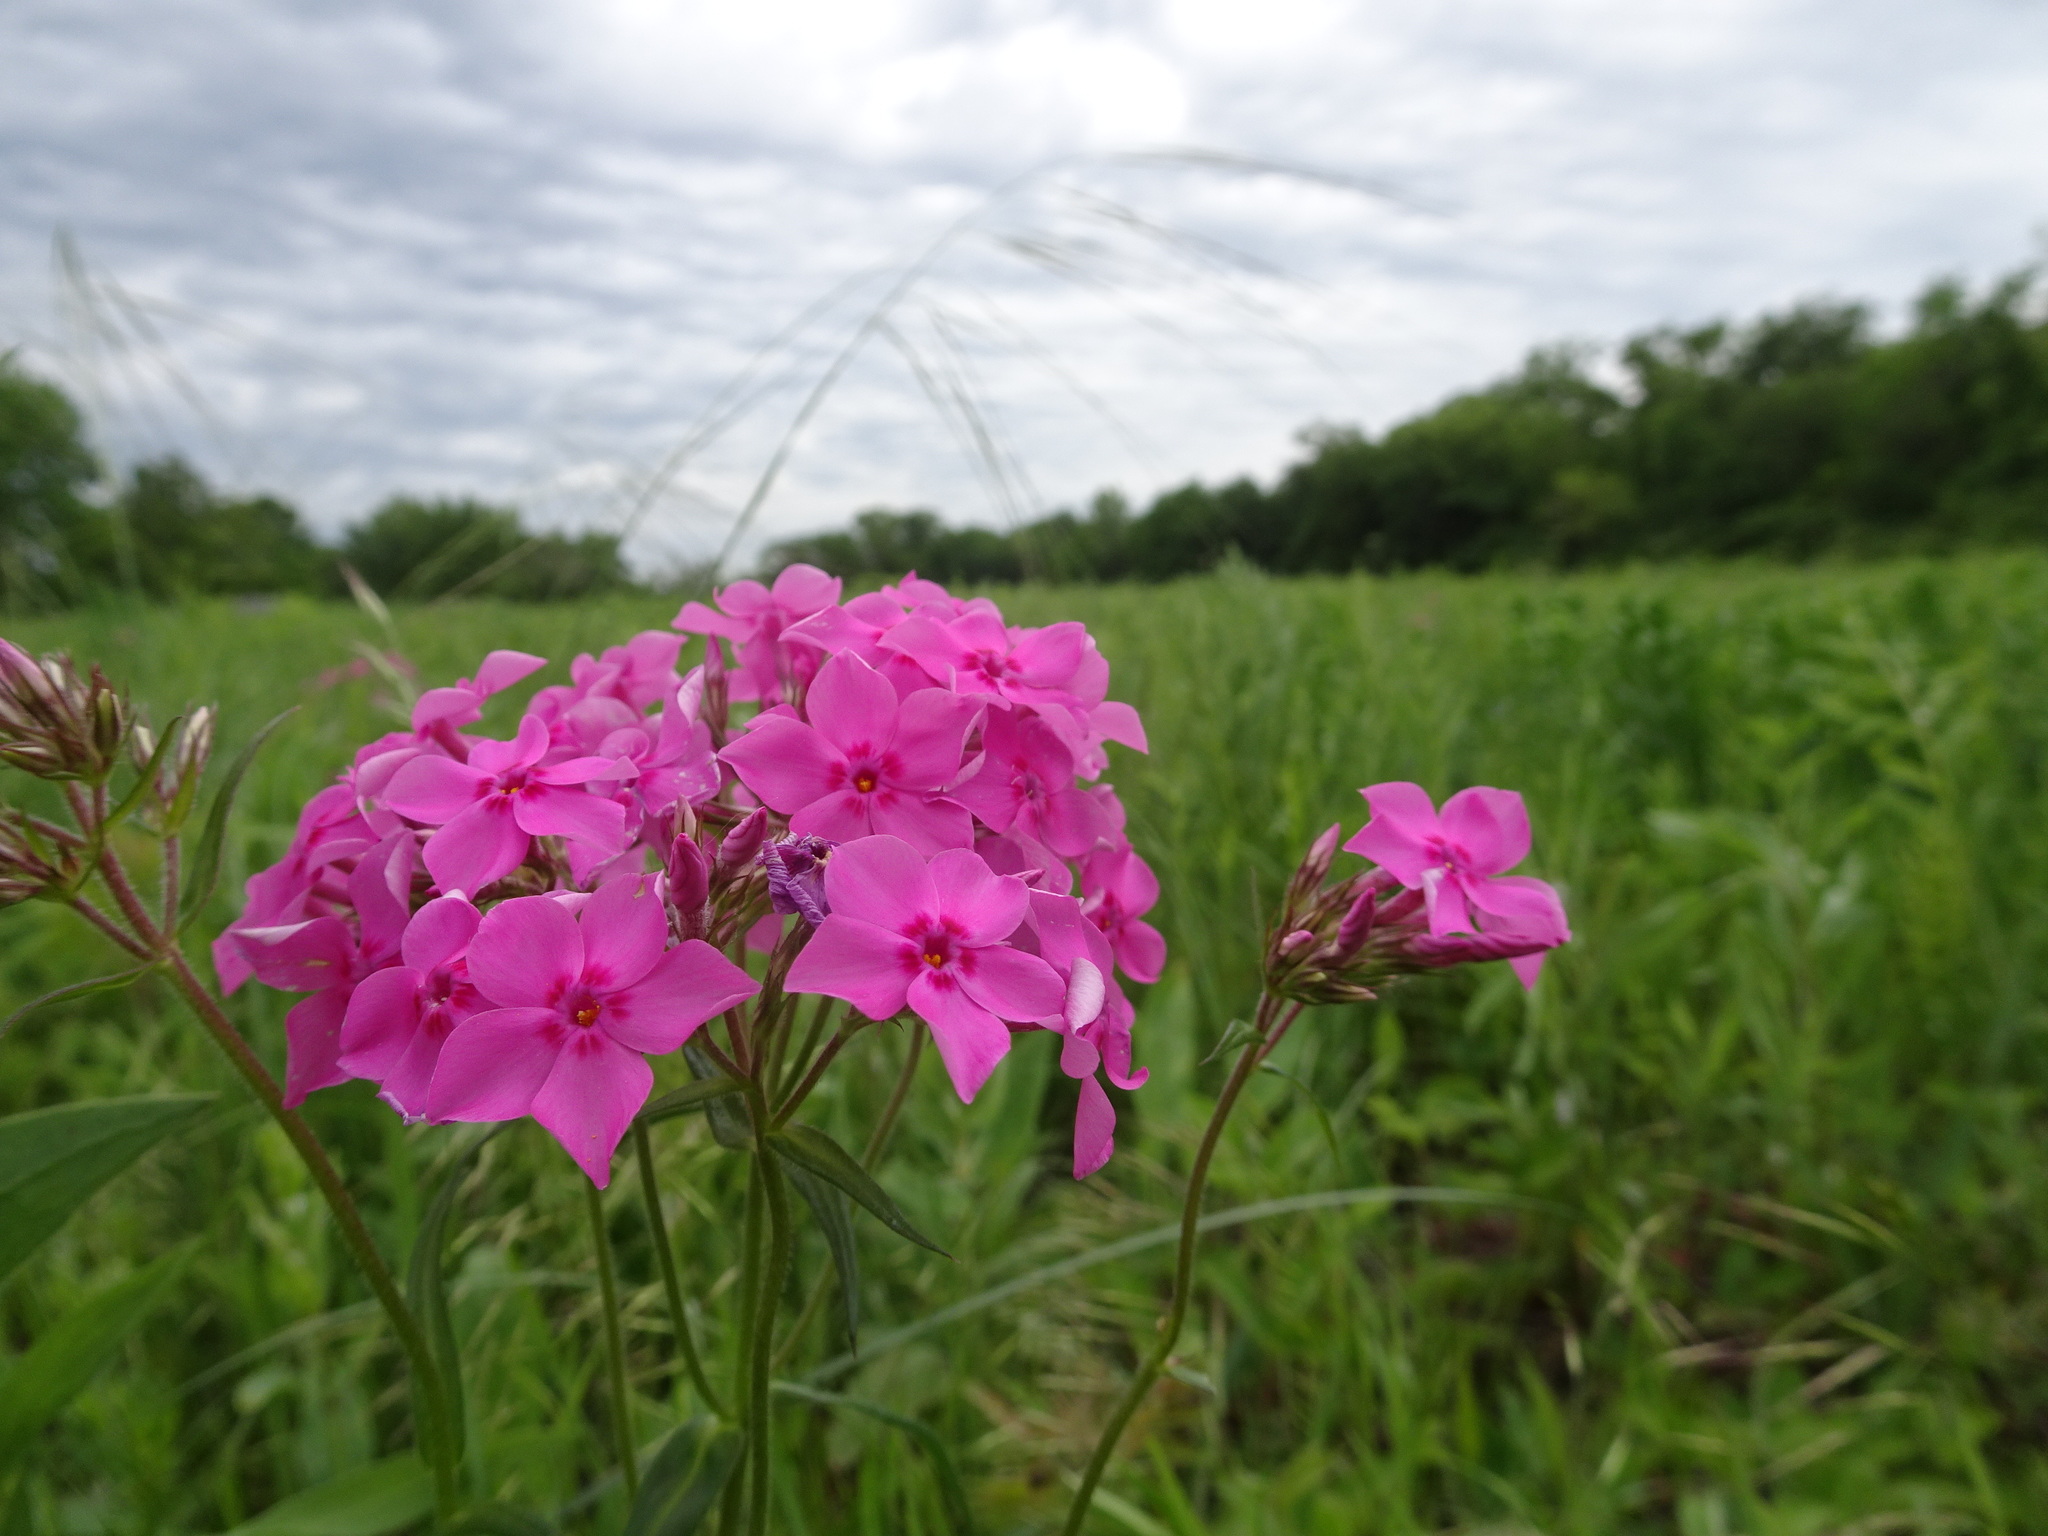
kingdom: Plantae
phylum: Tracheophyta
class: Magnoliopsida
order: Ericales
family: Polemoniaceae
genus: Phlox
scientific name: Phlox pilosa
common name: Prairie phlox
